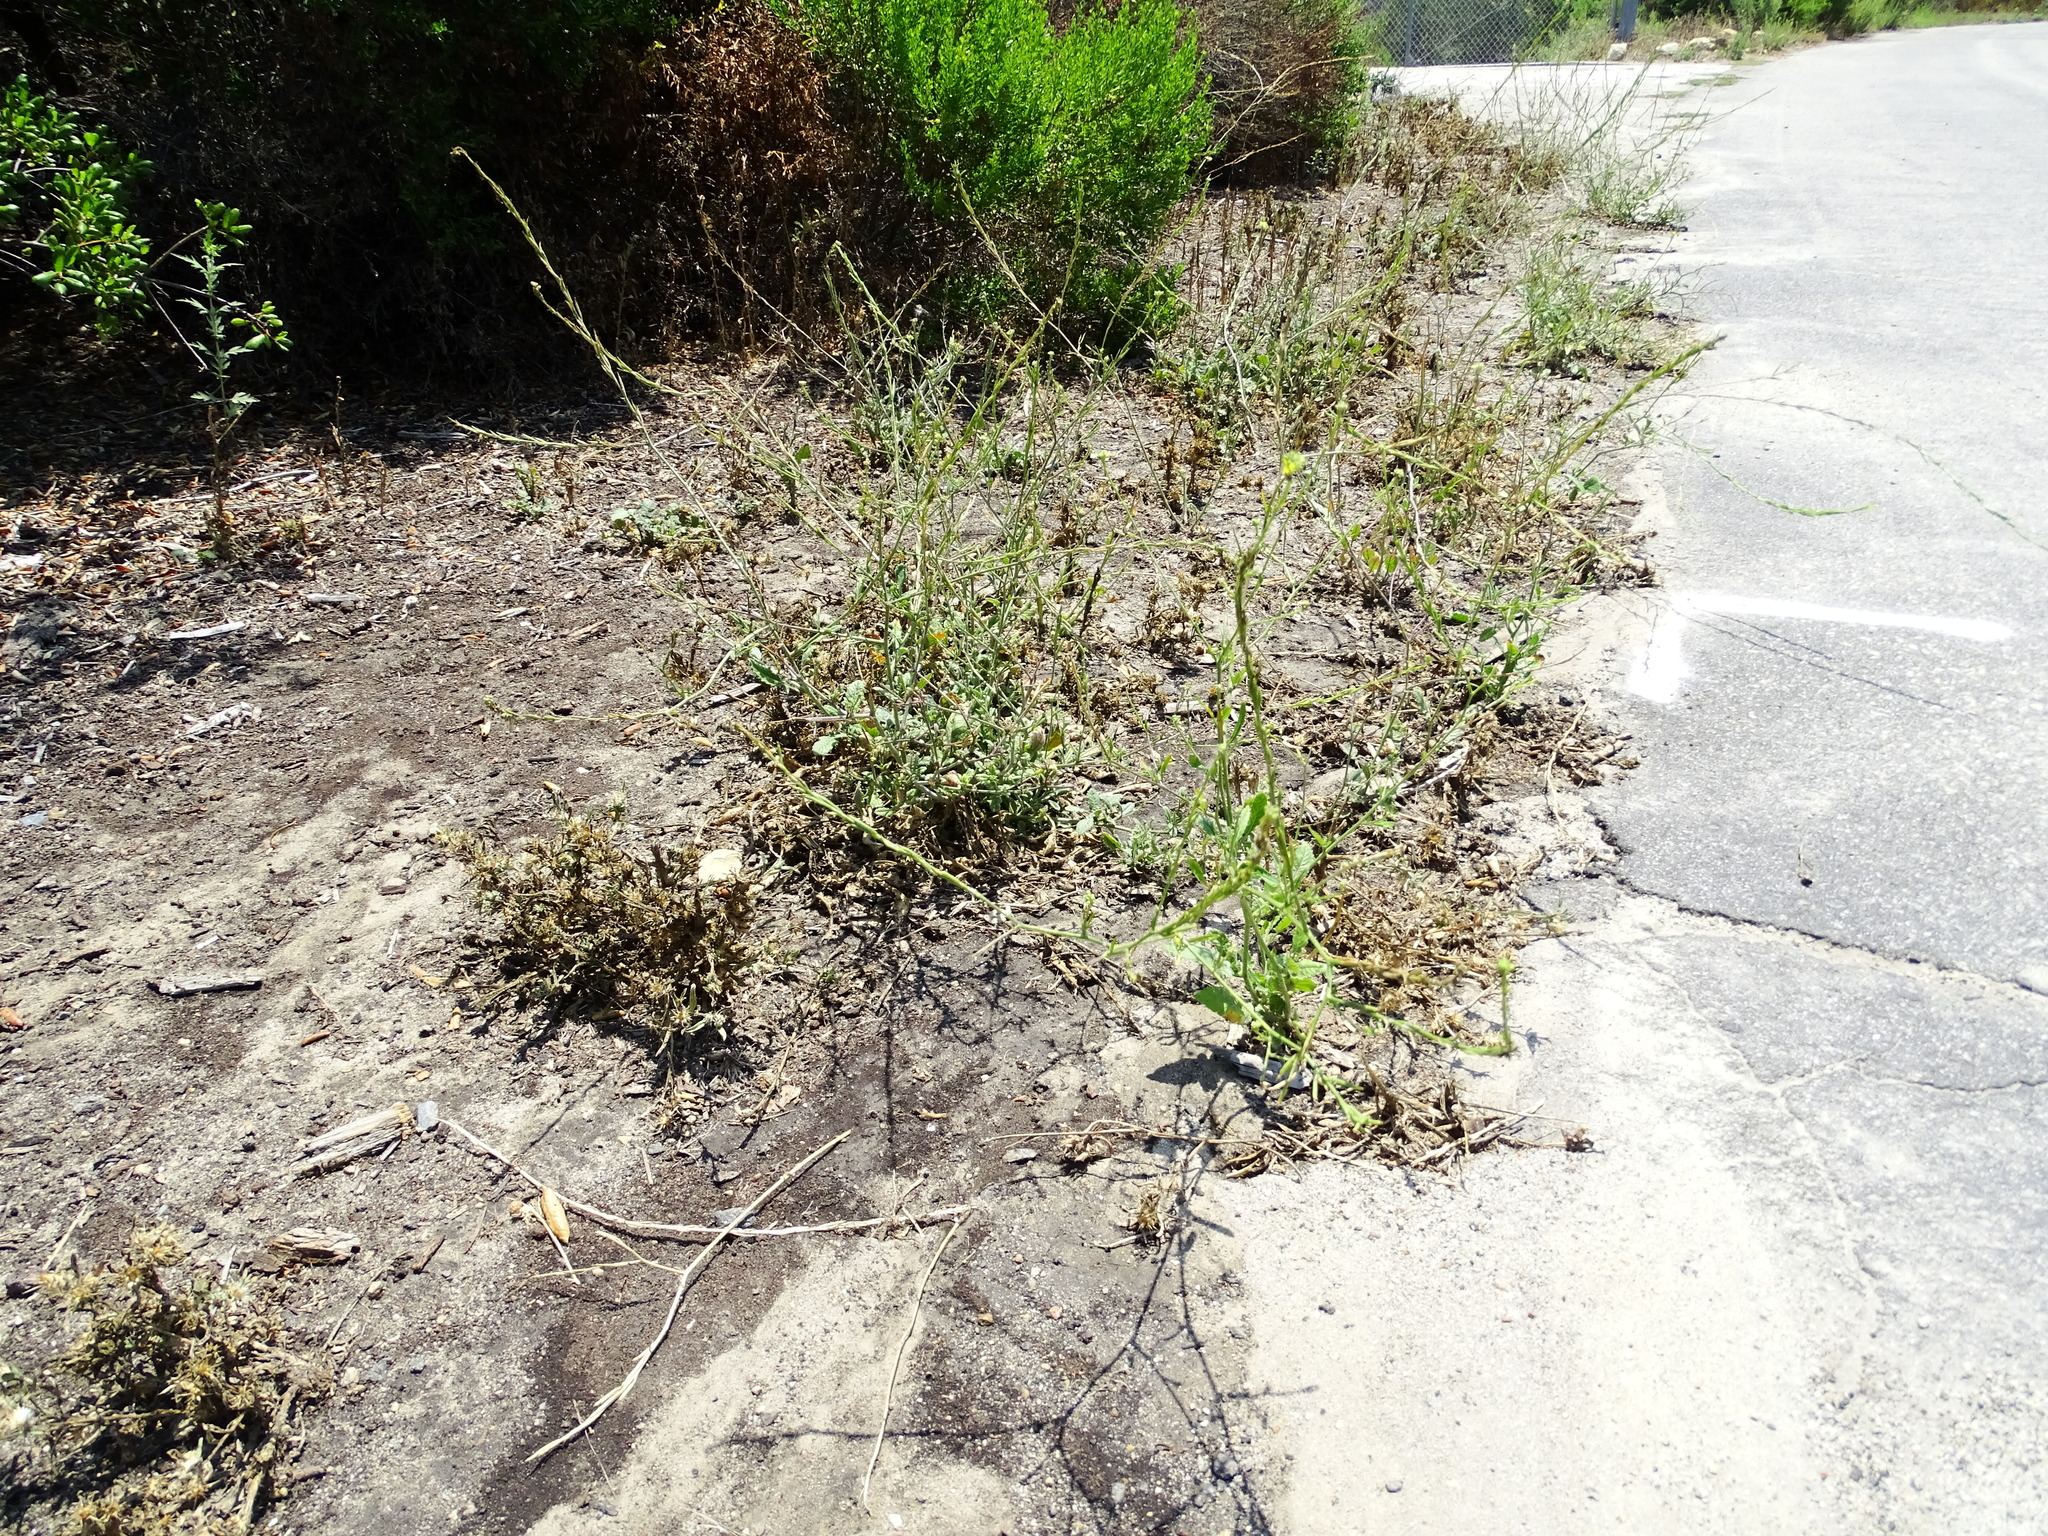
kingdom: Plantae
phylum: Tracheophyta
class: Magnoliopsida
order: Brassicales
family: Brassicaceae
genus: Hirschfeldia
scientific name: Hirschfeldia incana
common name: Hoary mustard
